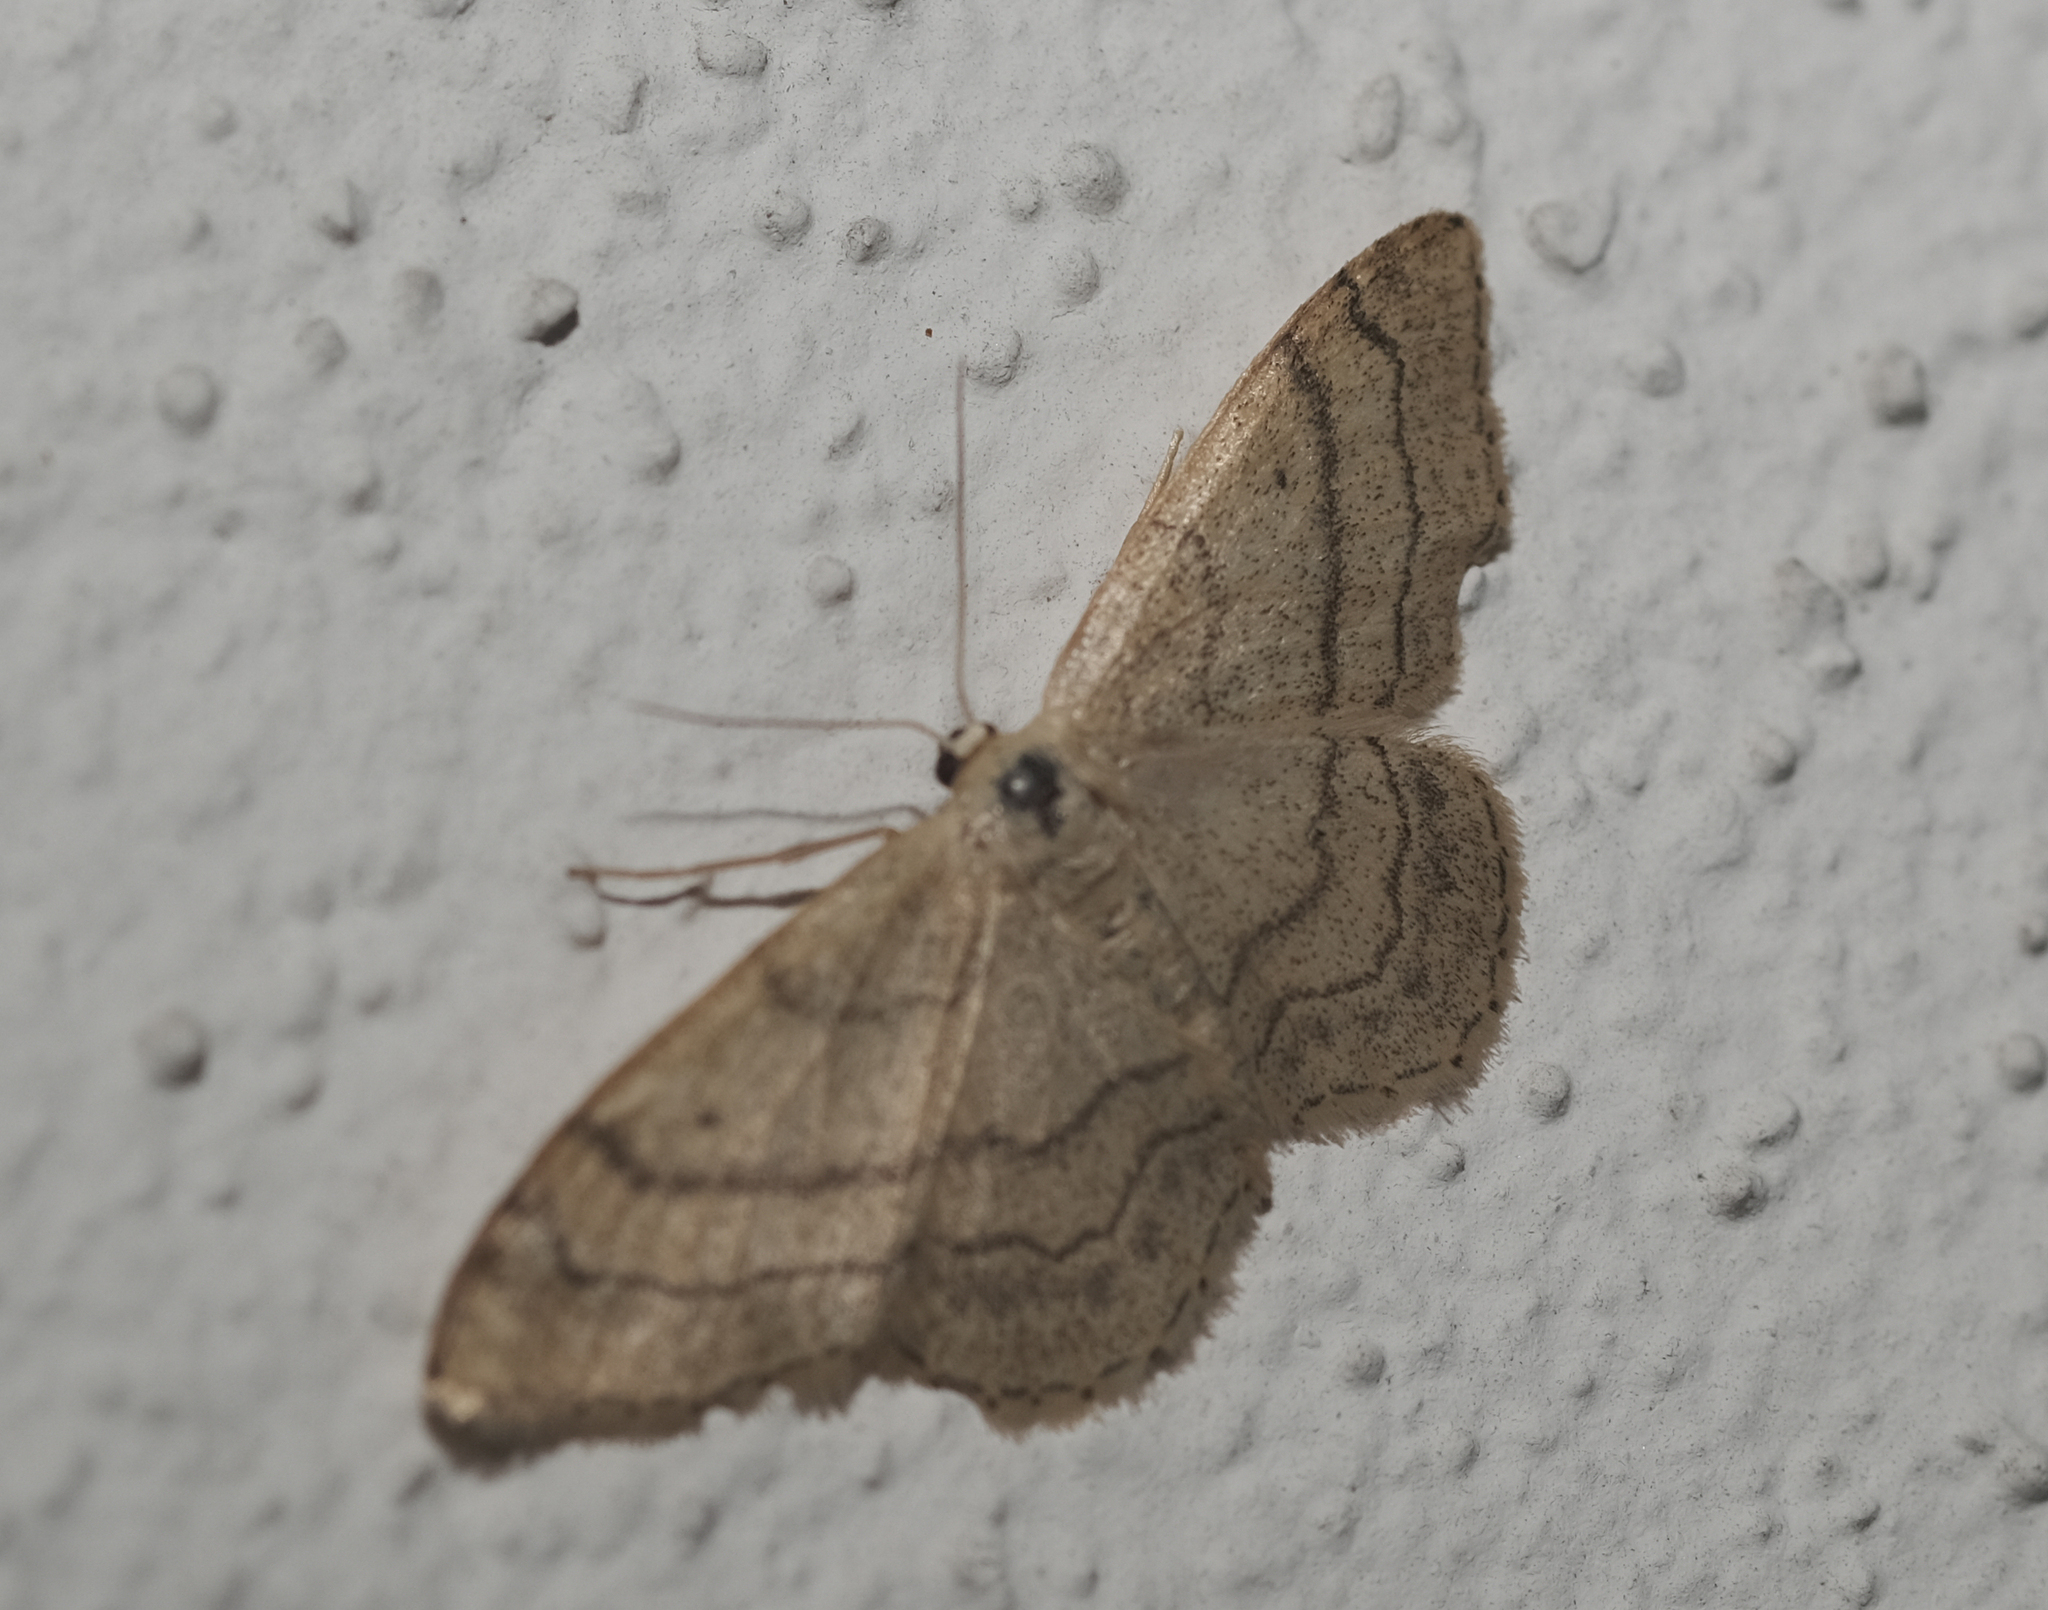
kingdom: Animalia
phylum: Arthropoda
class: Insecta
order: Lepidoptera
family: Geometridae
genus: Idaea
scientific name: Idaea aversata
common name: Riband wave
